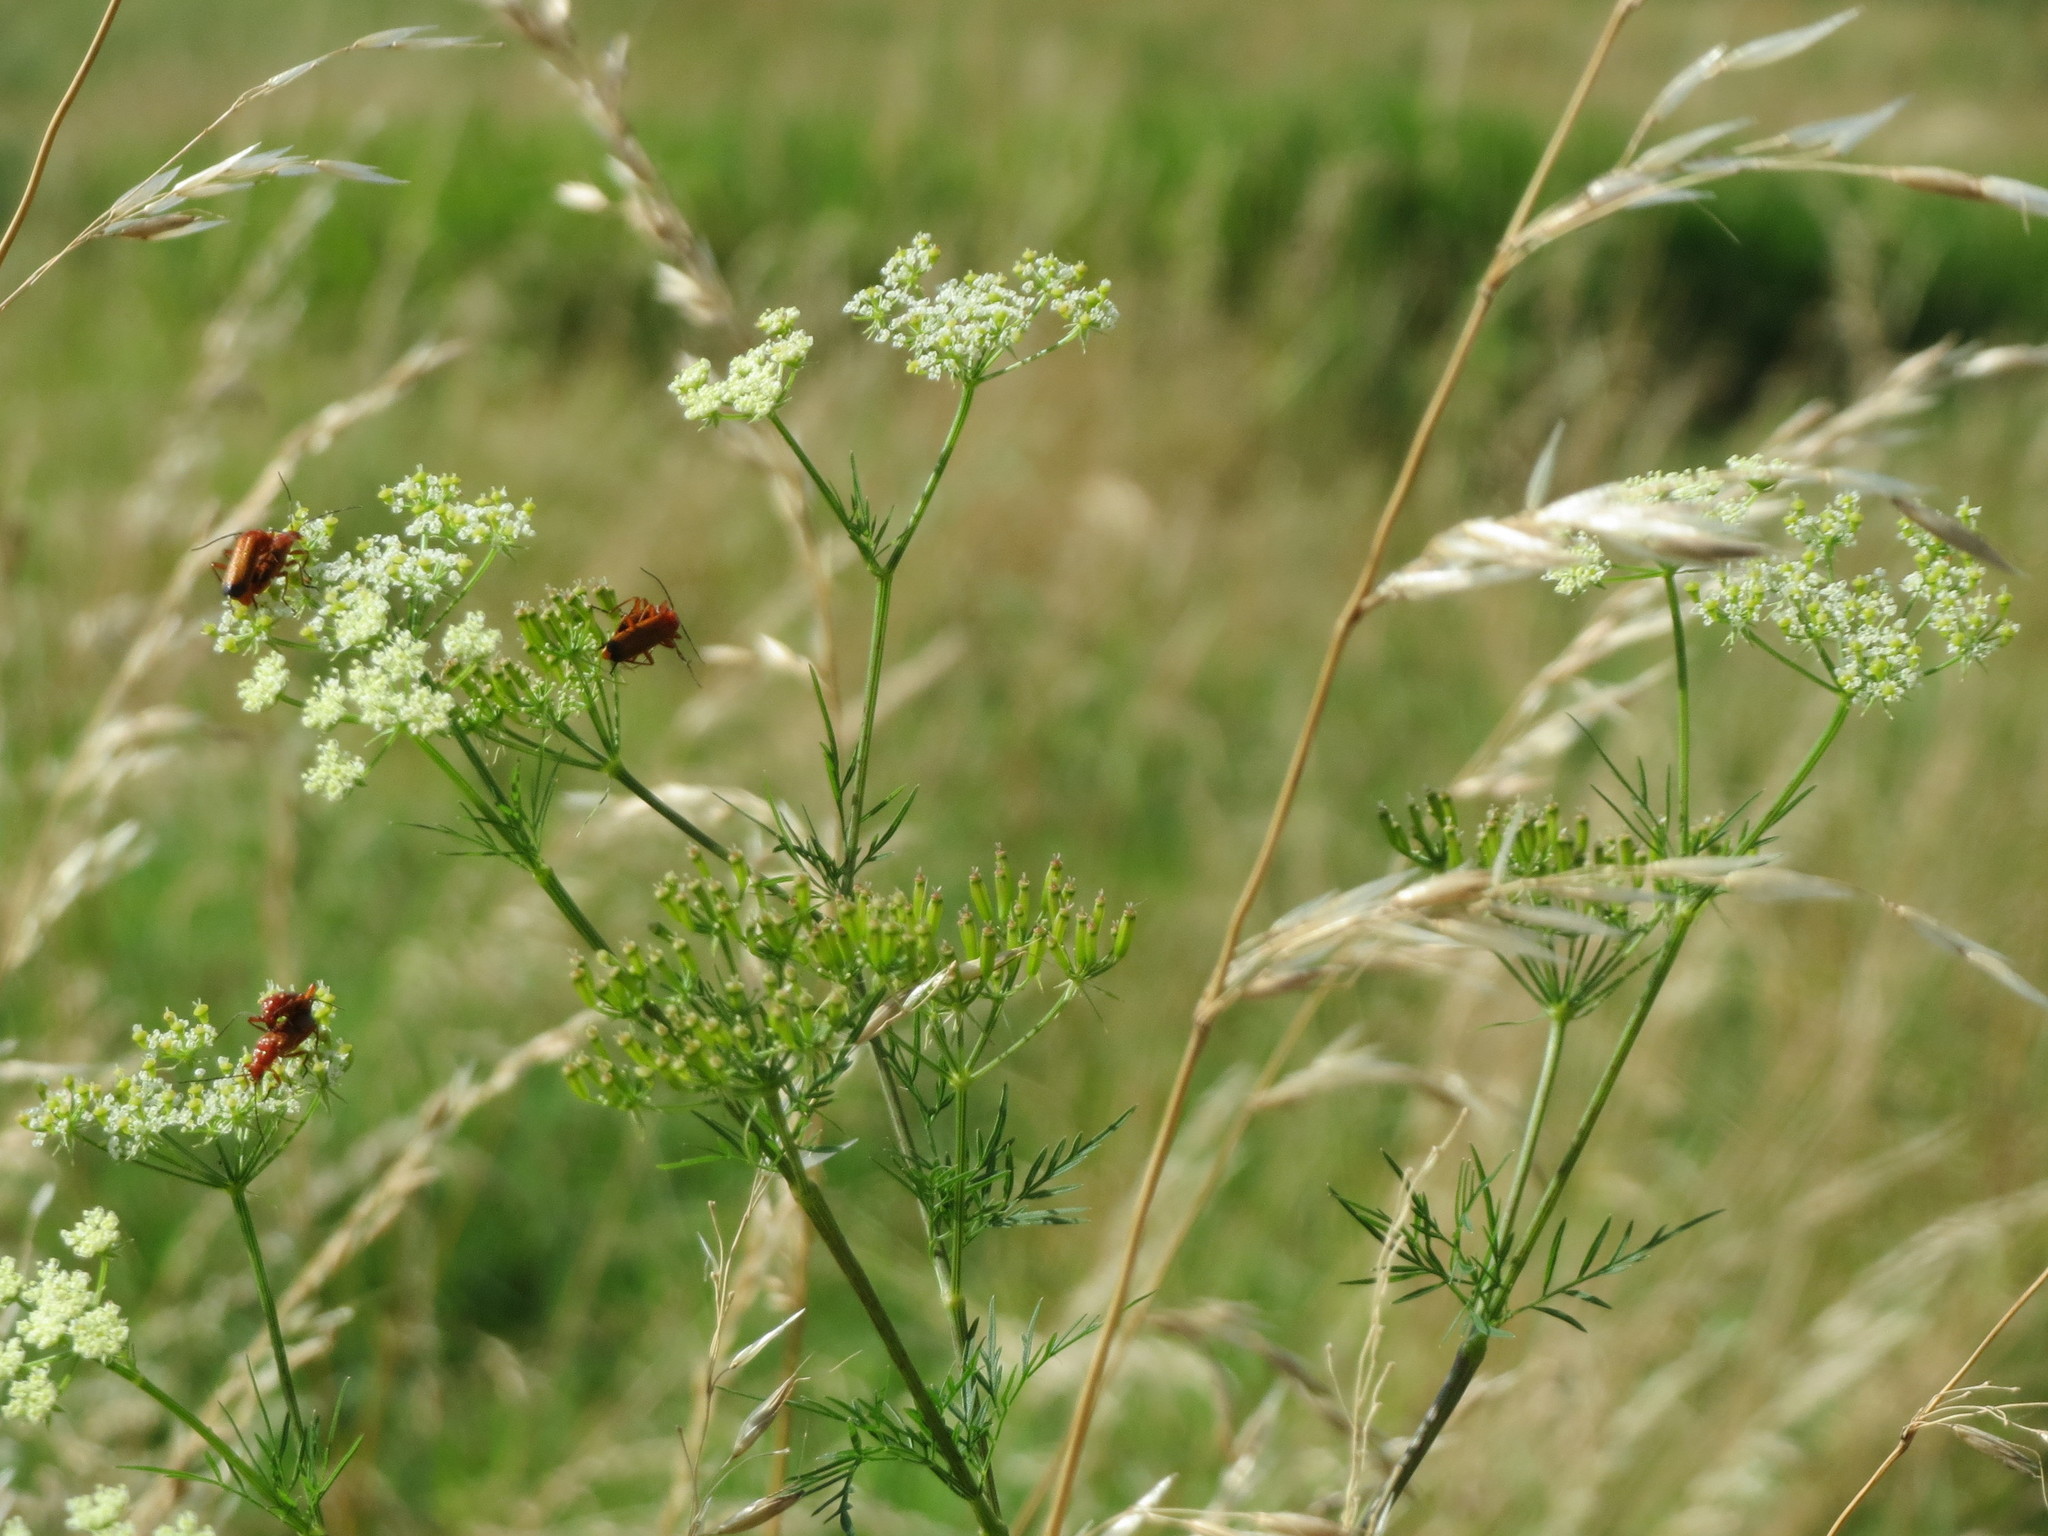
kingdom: Plantae
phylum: Tracheophyta
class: Magnoliopsida
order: Apiales
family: Apiaceae
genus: Chaerophyllum
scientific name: Chaerophyllum bulbosum
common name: Bulbous chervil
